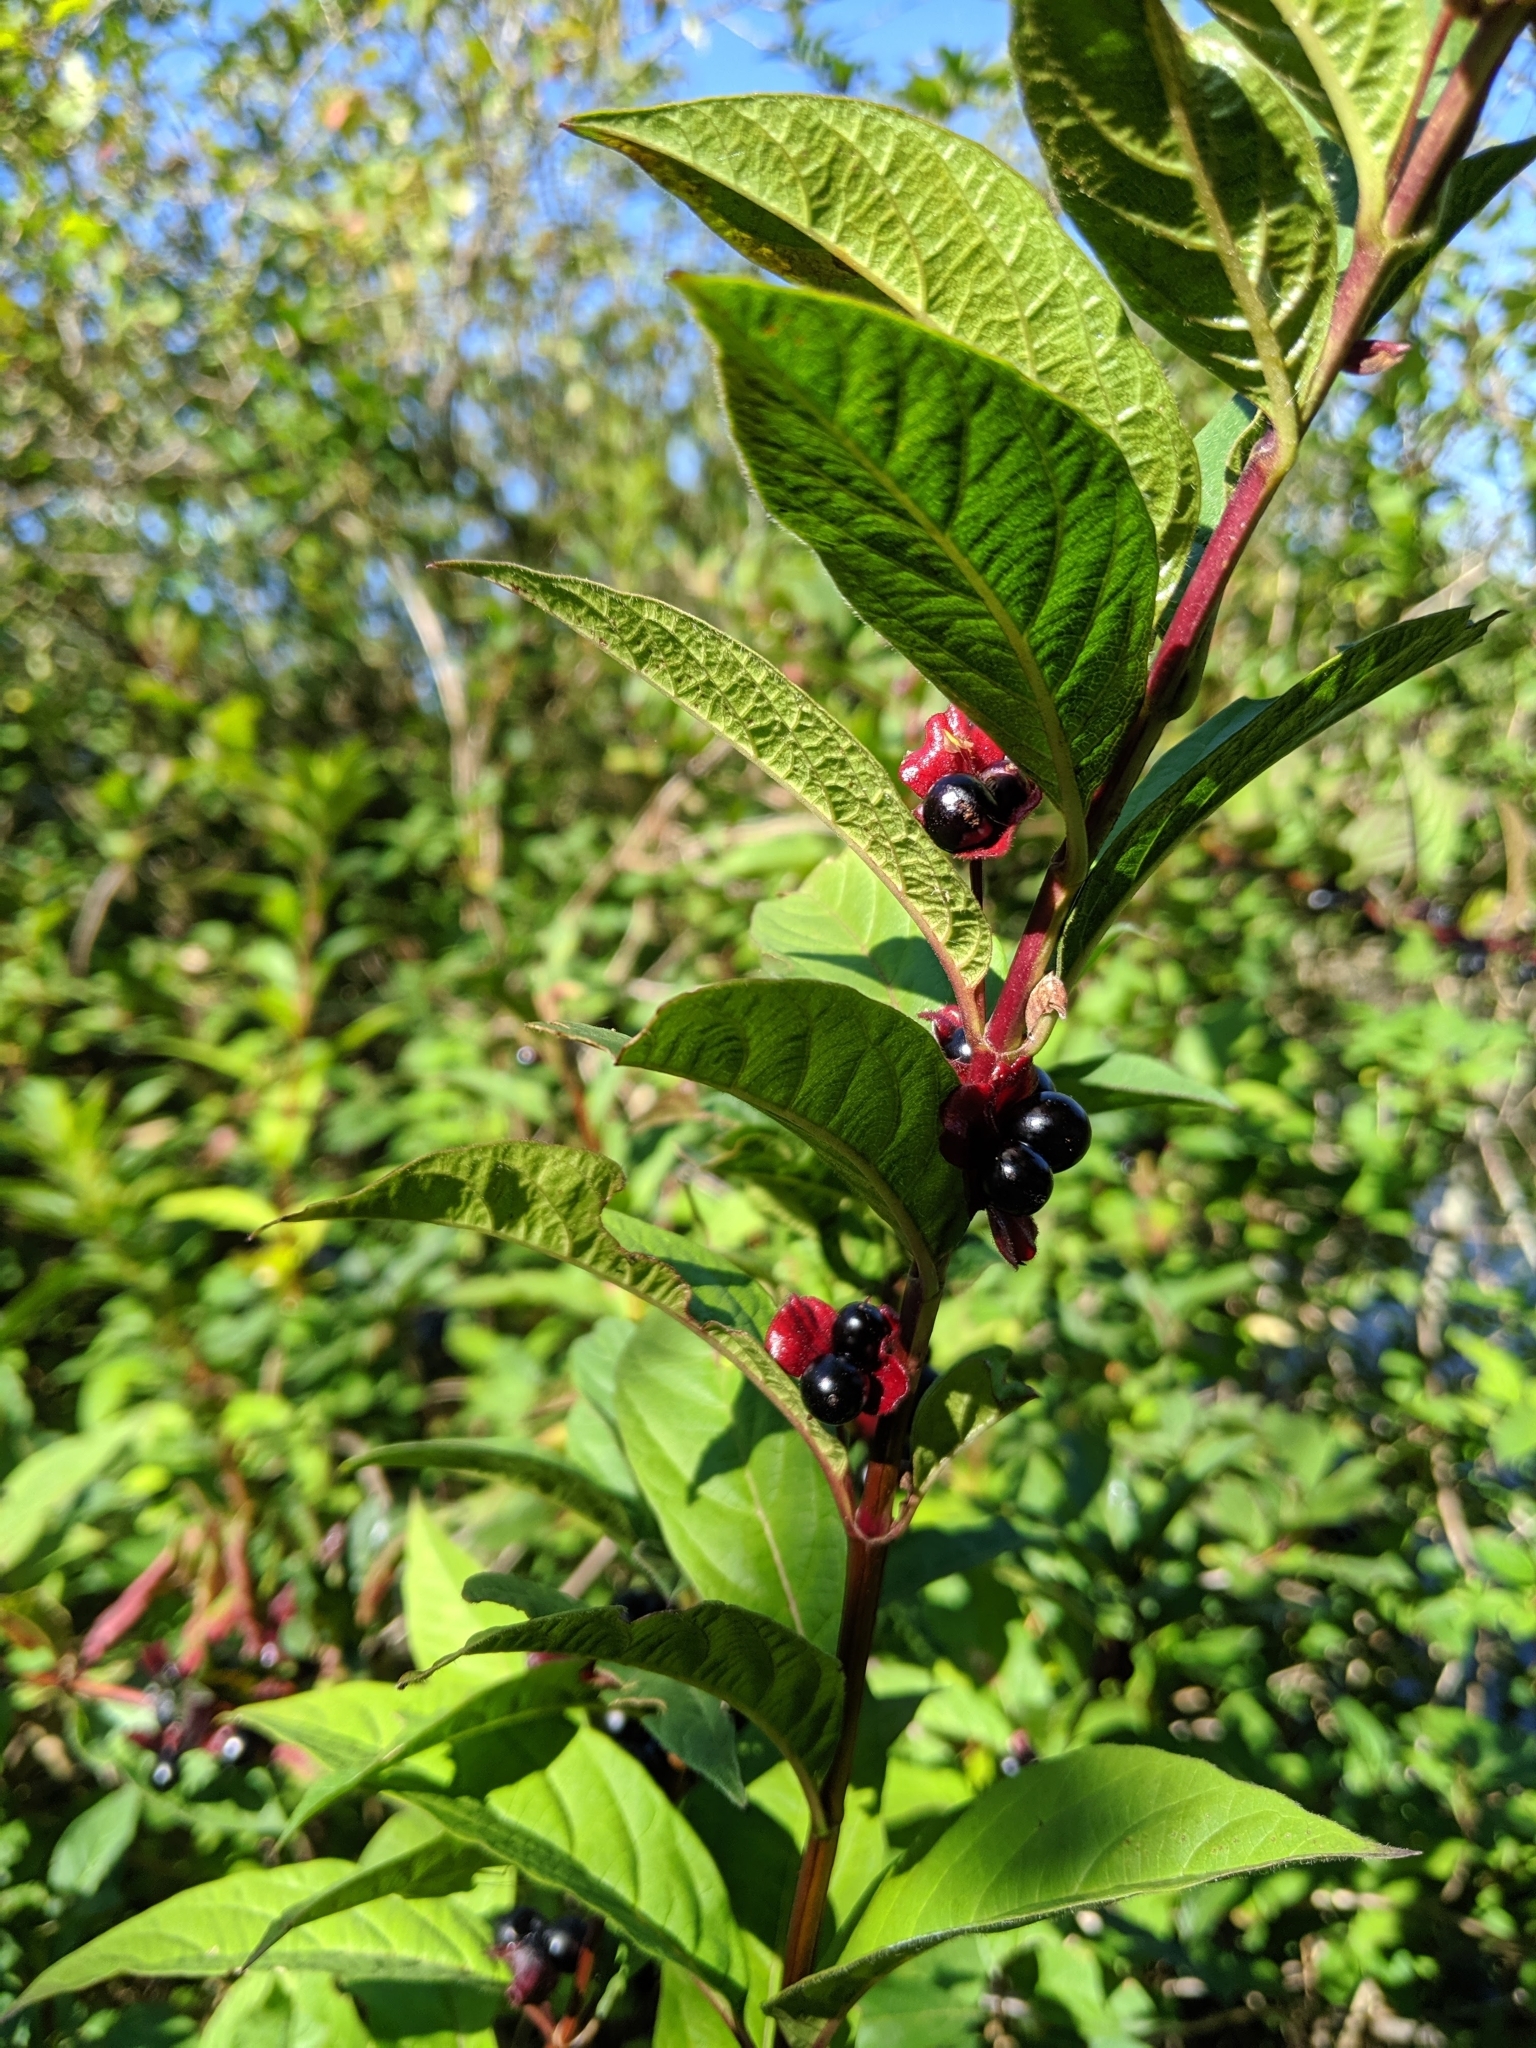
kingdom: Plantae
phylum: Tracheophyta
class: Magnoliopsida
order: Dipsacales
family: Caprifoliaceae
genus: Lonicera
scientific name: Lonicera involucrata
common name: Californian honeysuckle
